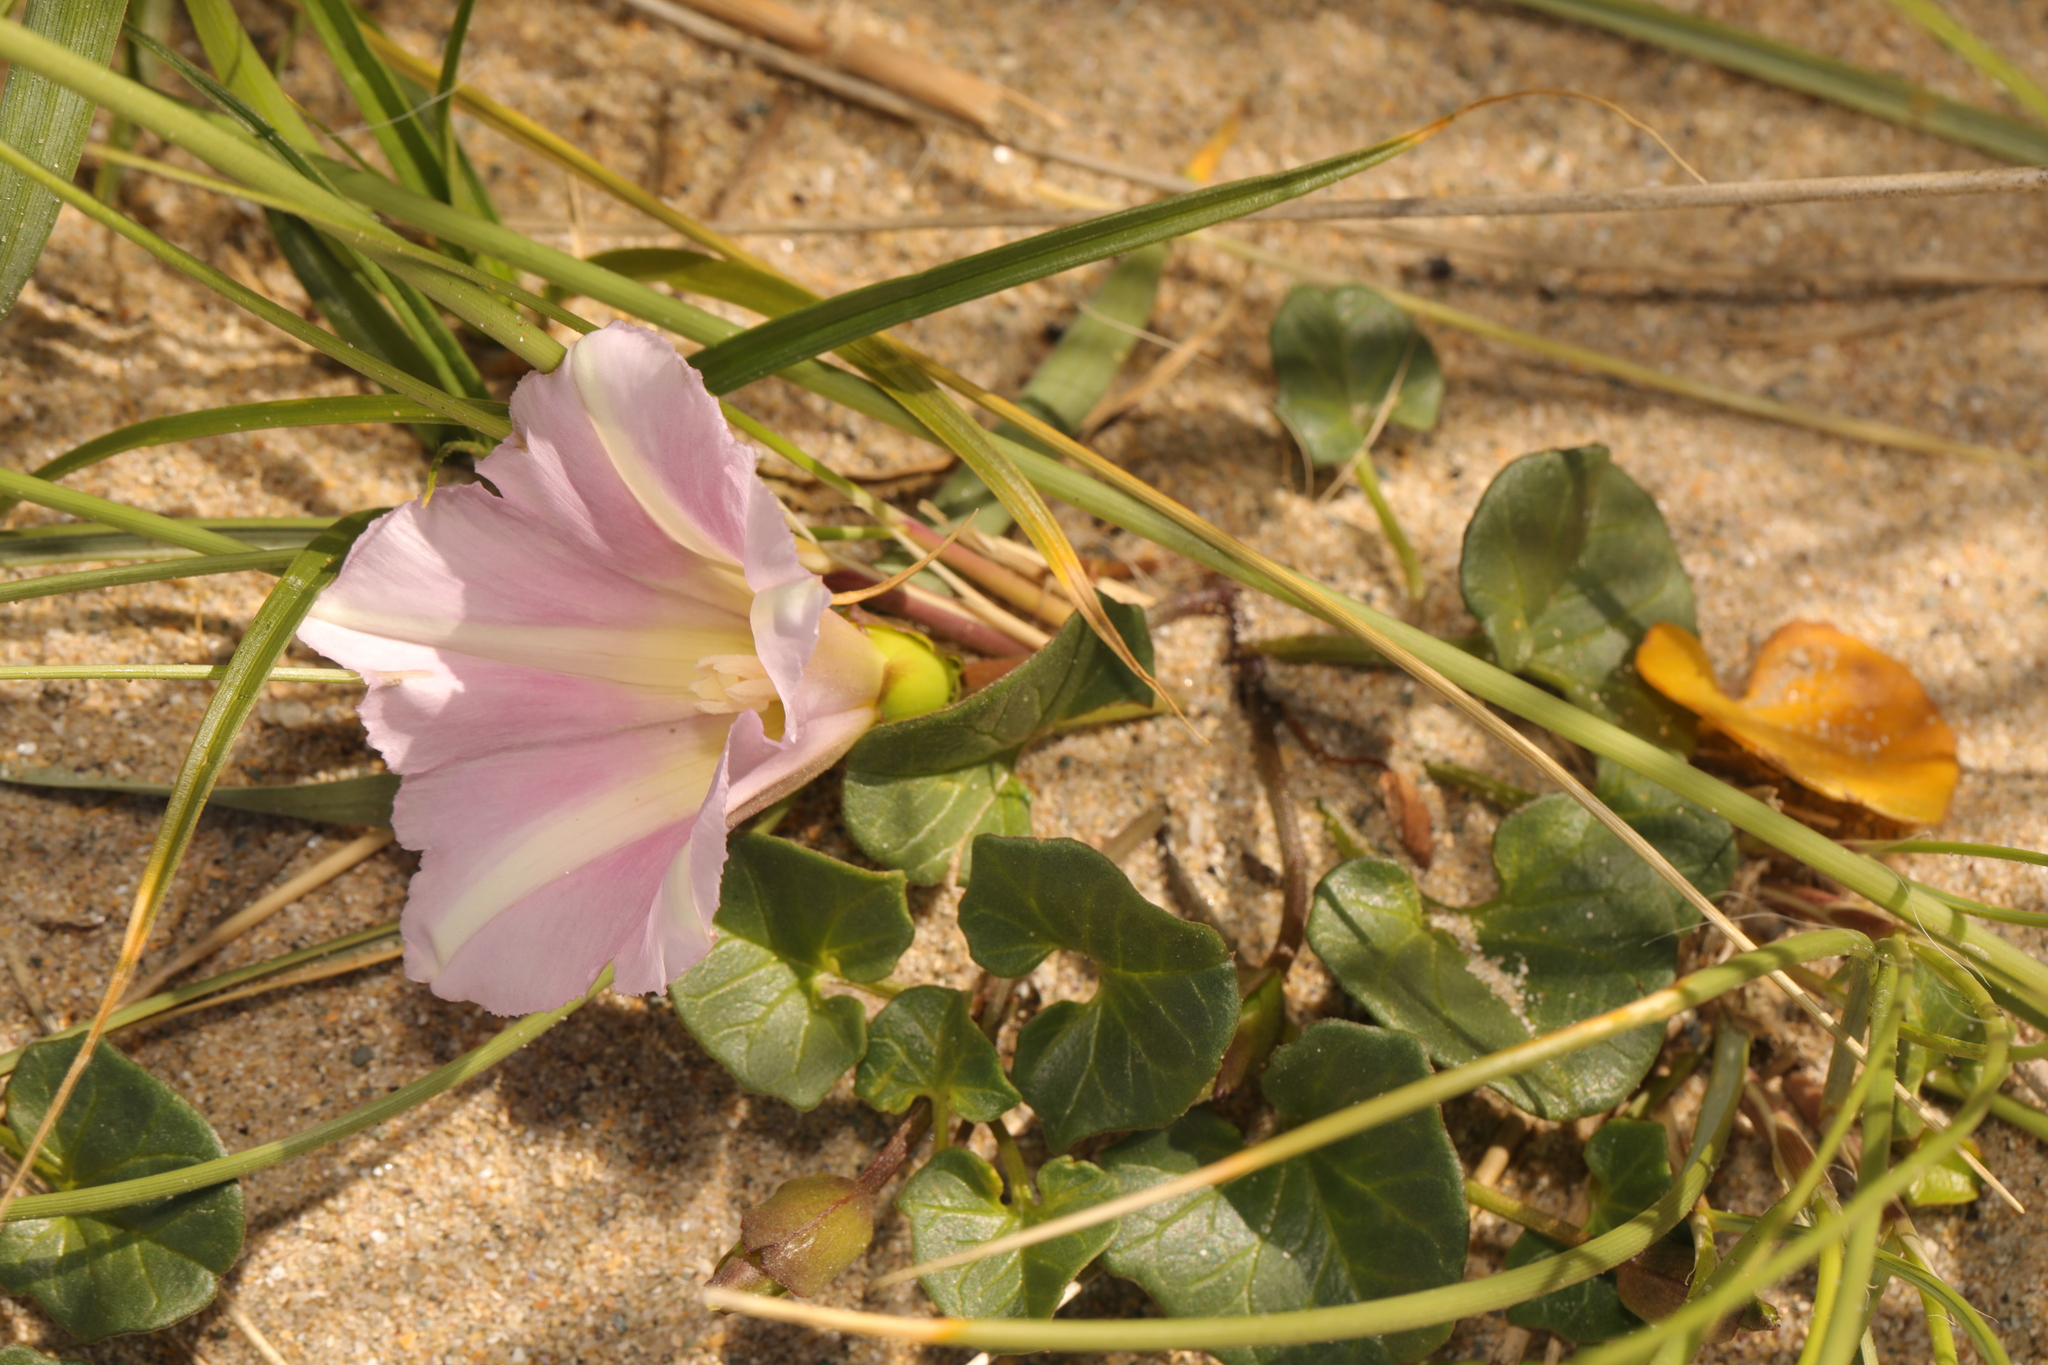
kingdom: Plantae
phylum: Tracheophyta
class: Magnoliopsida
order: Solanales
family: Convolvulaceae
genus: Calystegia
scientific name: Calystegia soldanella
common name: Sea bindweed
